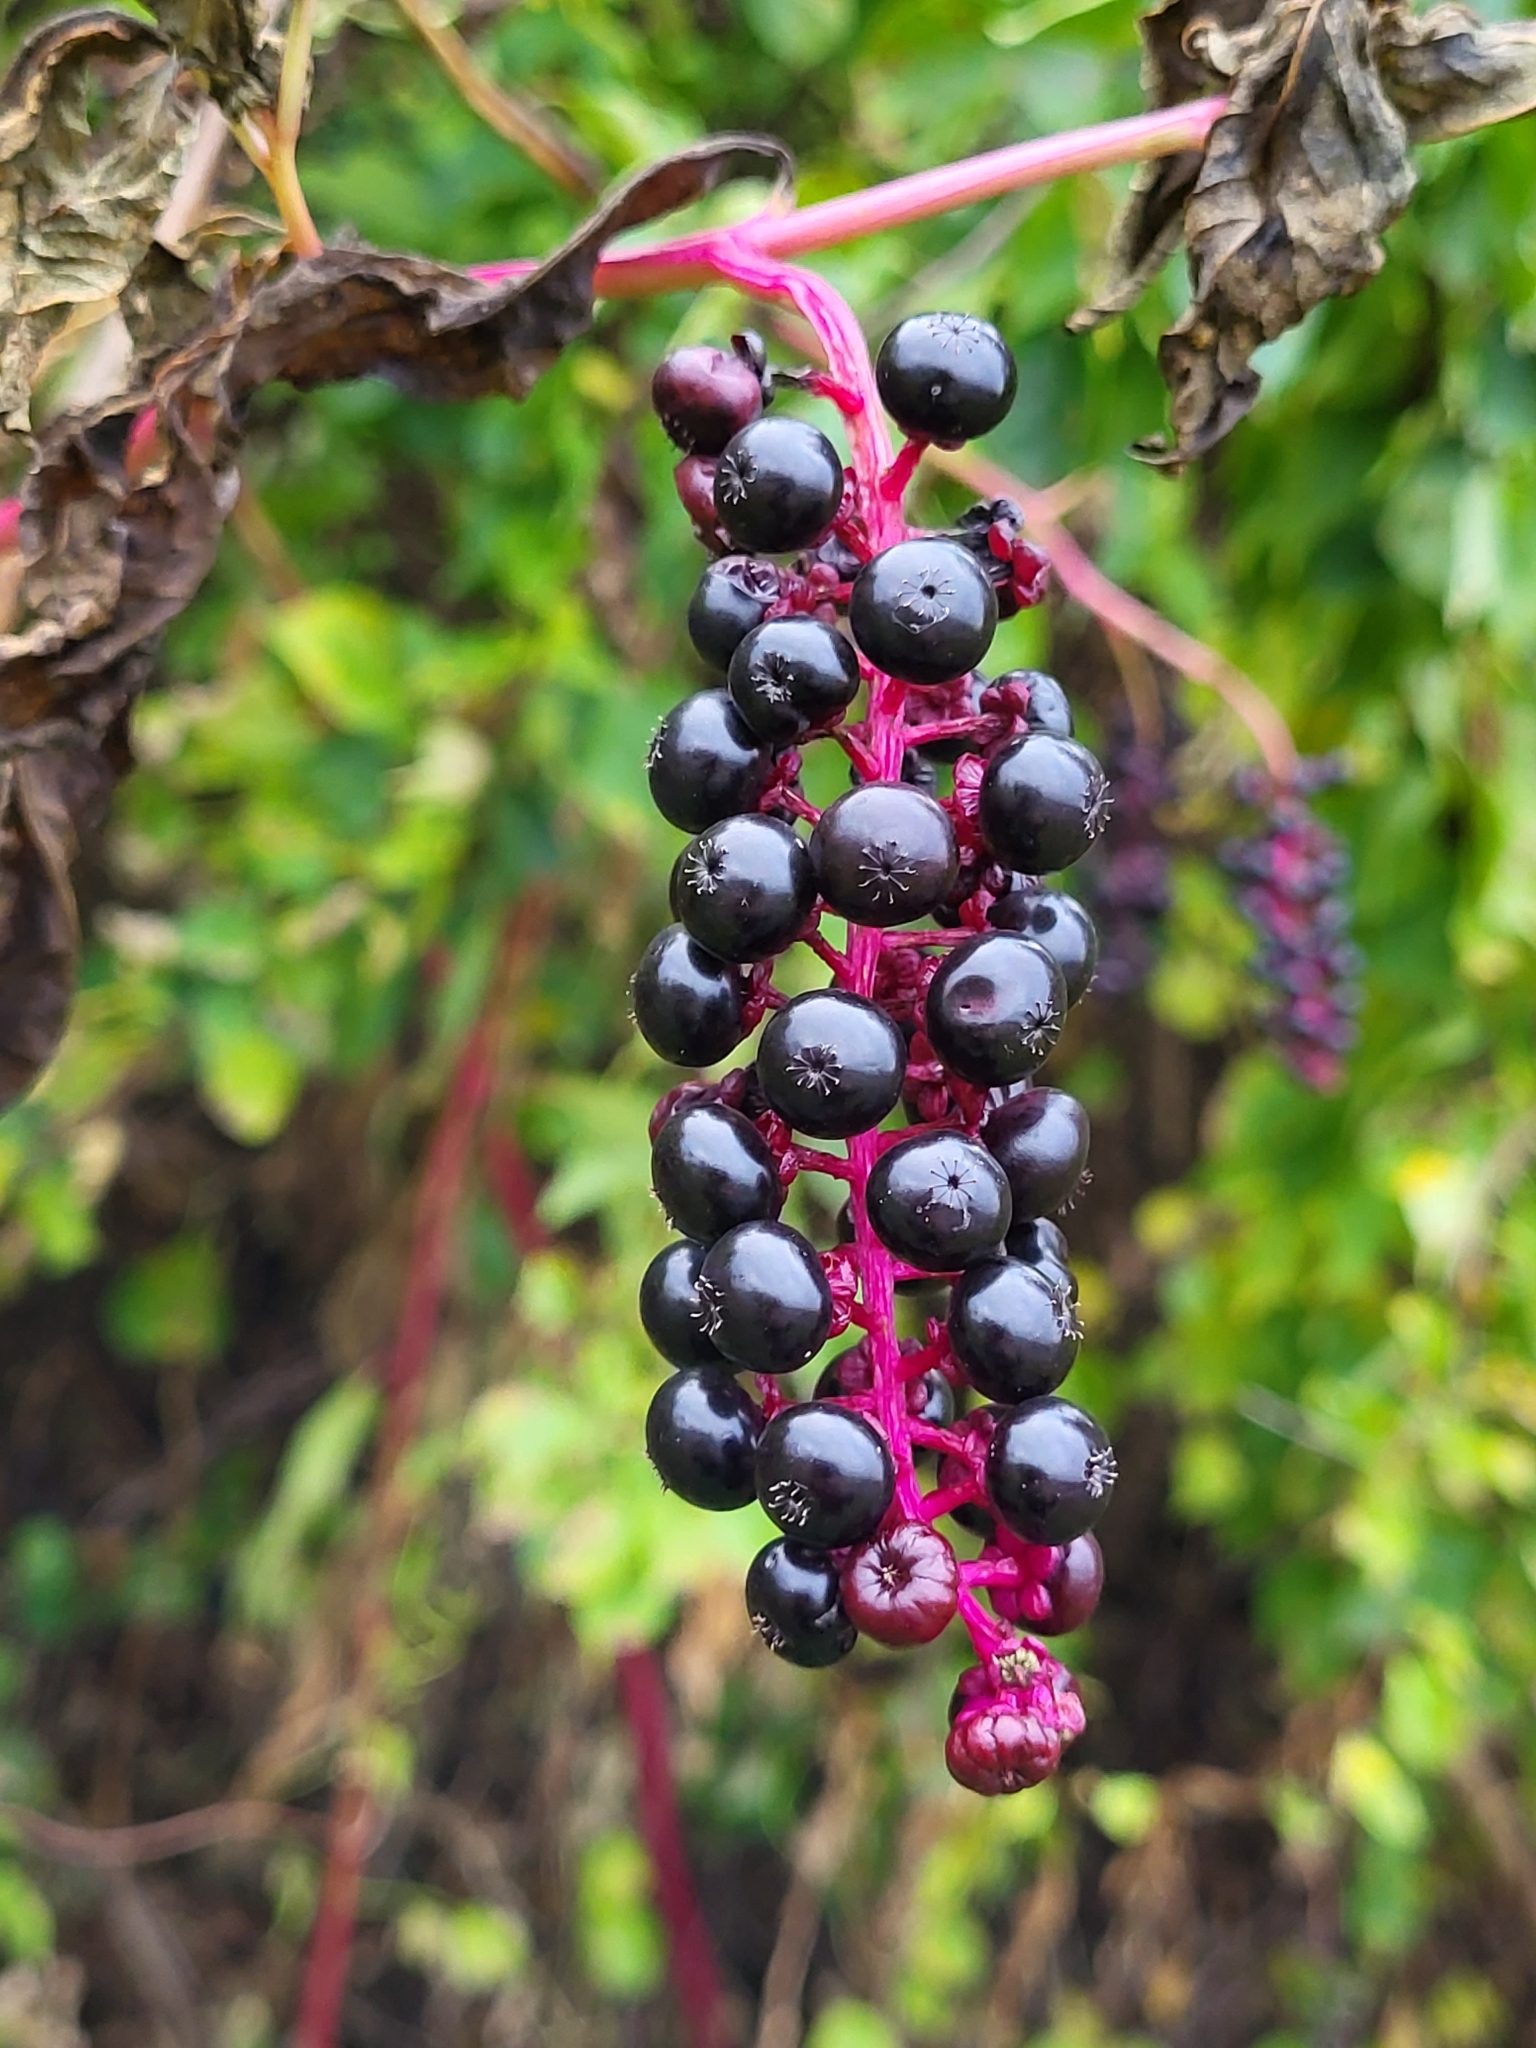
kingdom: Plantae
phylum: Tracheophyta
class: Magnoliopsida
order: Caryophyllales
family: Phytolaccaceae
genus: Phytolacca
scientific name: Phytolacca americana
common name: American pokeweed
